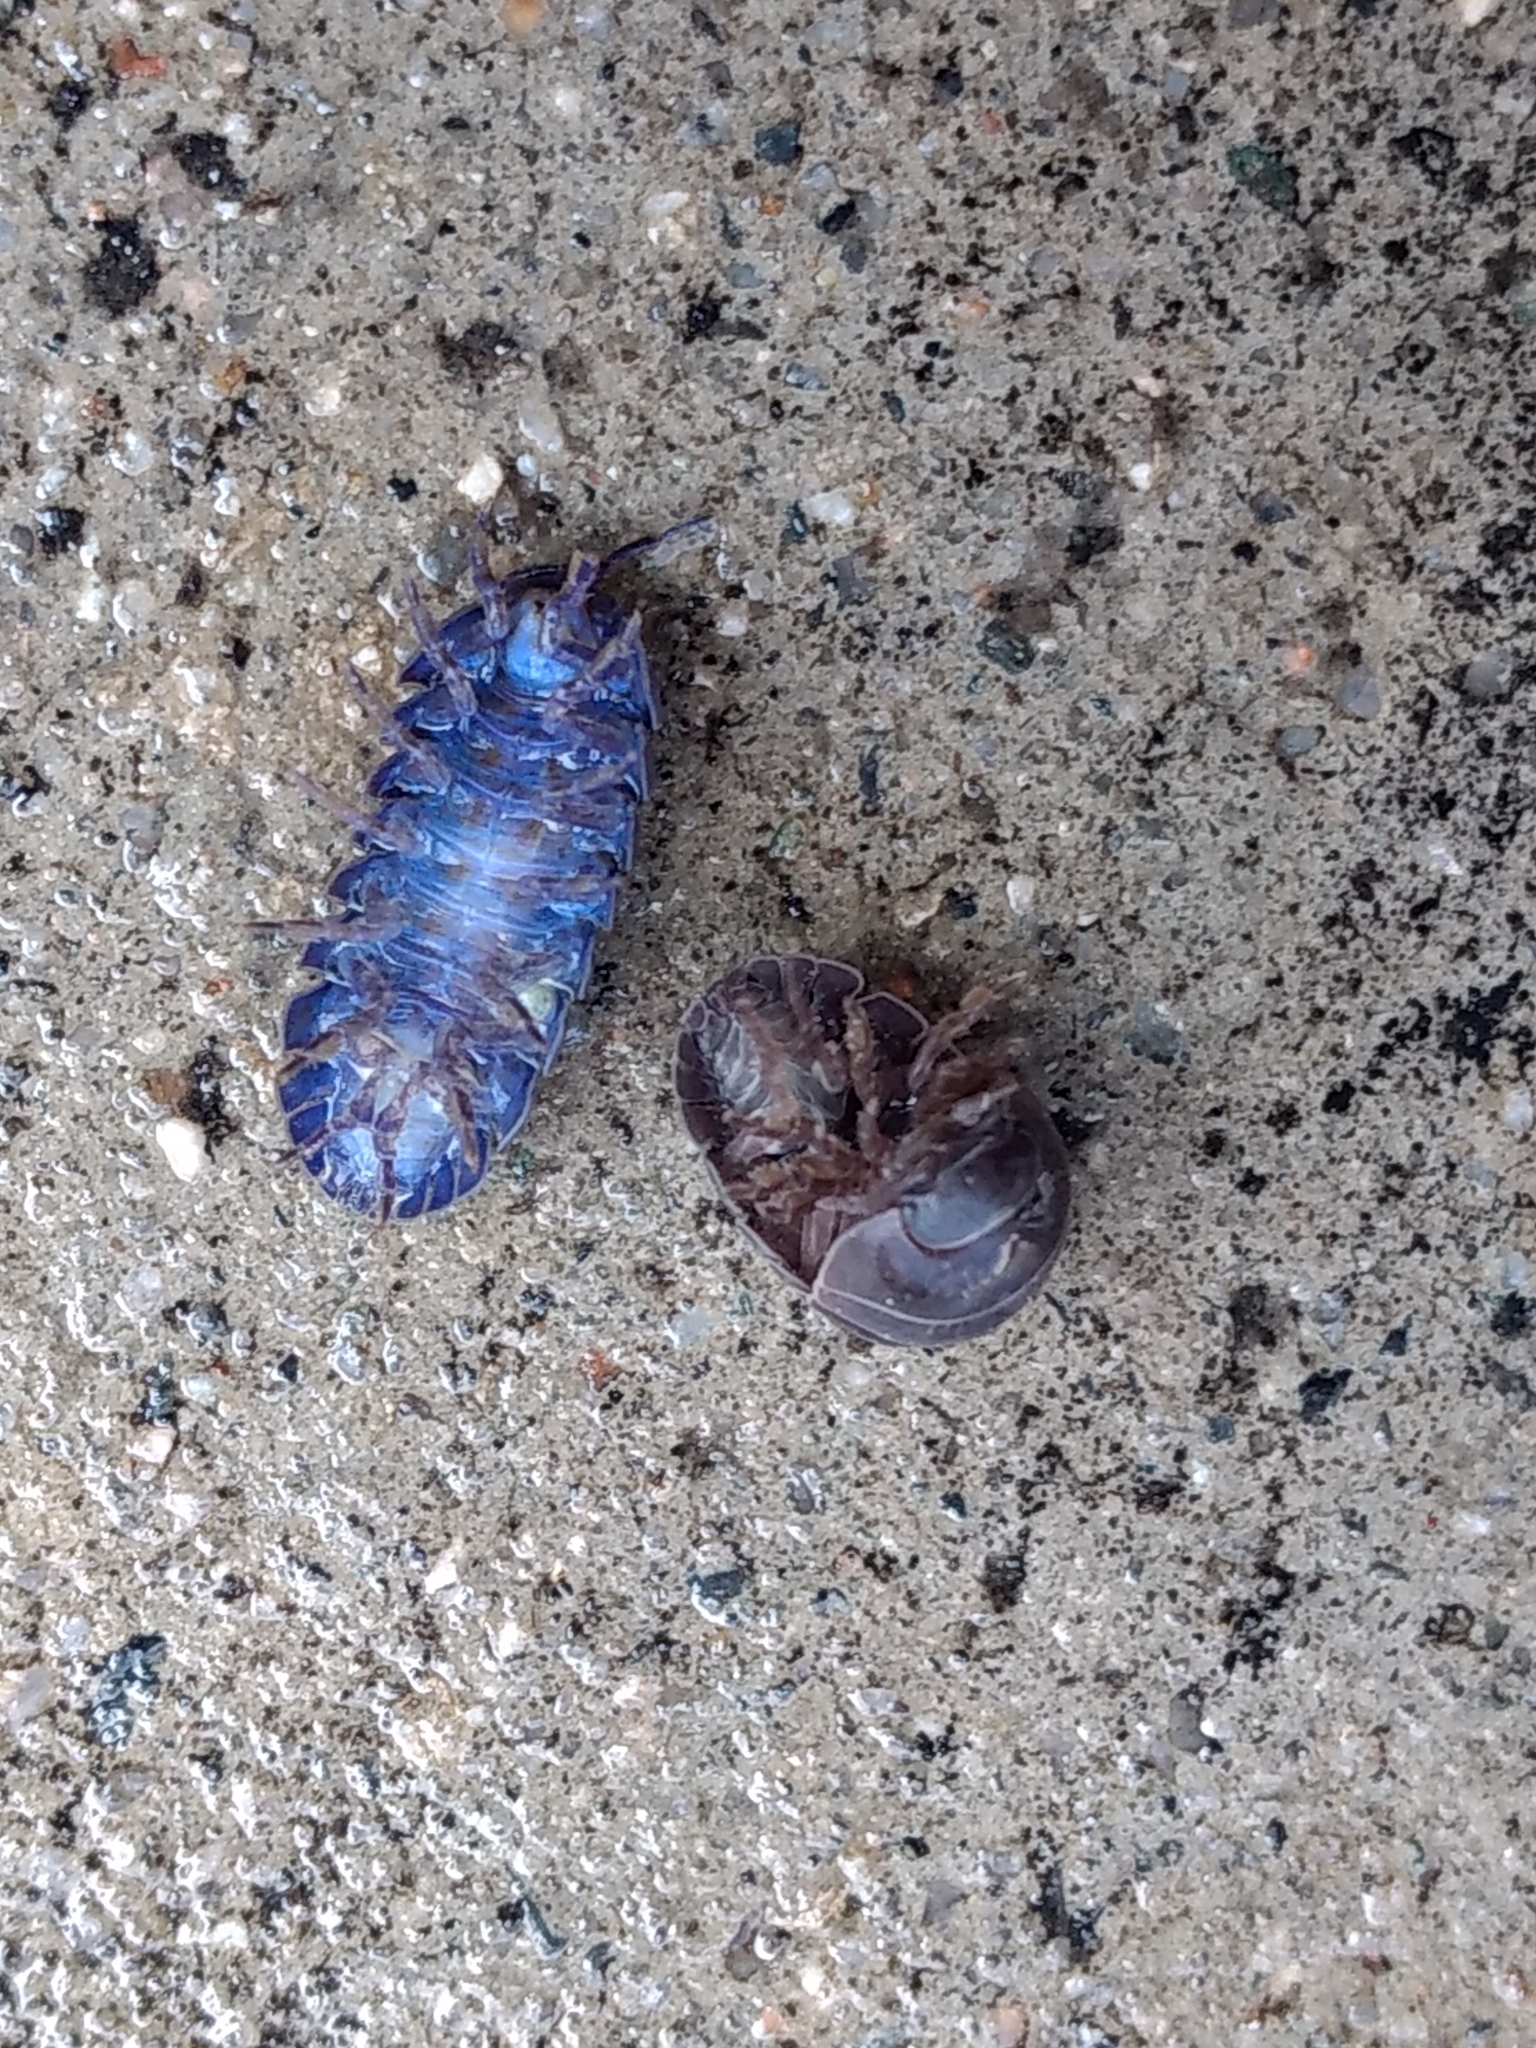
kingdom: Viruses
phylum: Nucleocytoviricota
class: Megaviricetes
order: Pimascovirales
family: Iridoviridae
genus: Iridovirus
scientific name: Iridovirus Invertebrate iridescent virus 31
